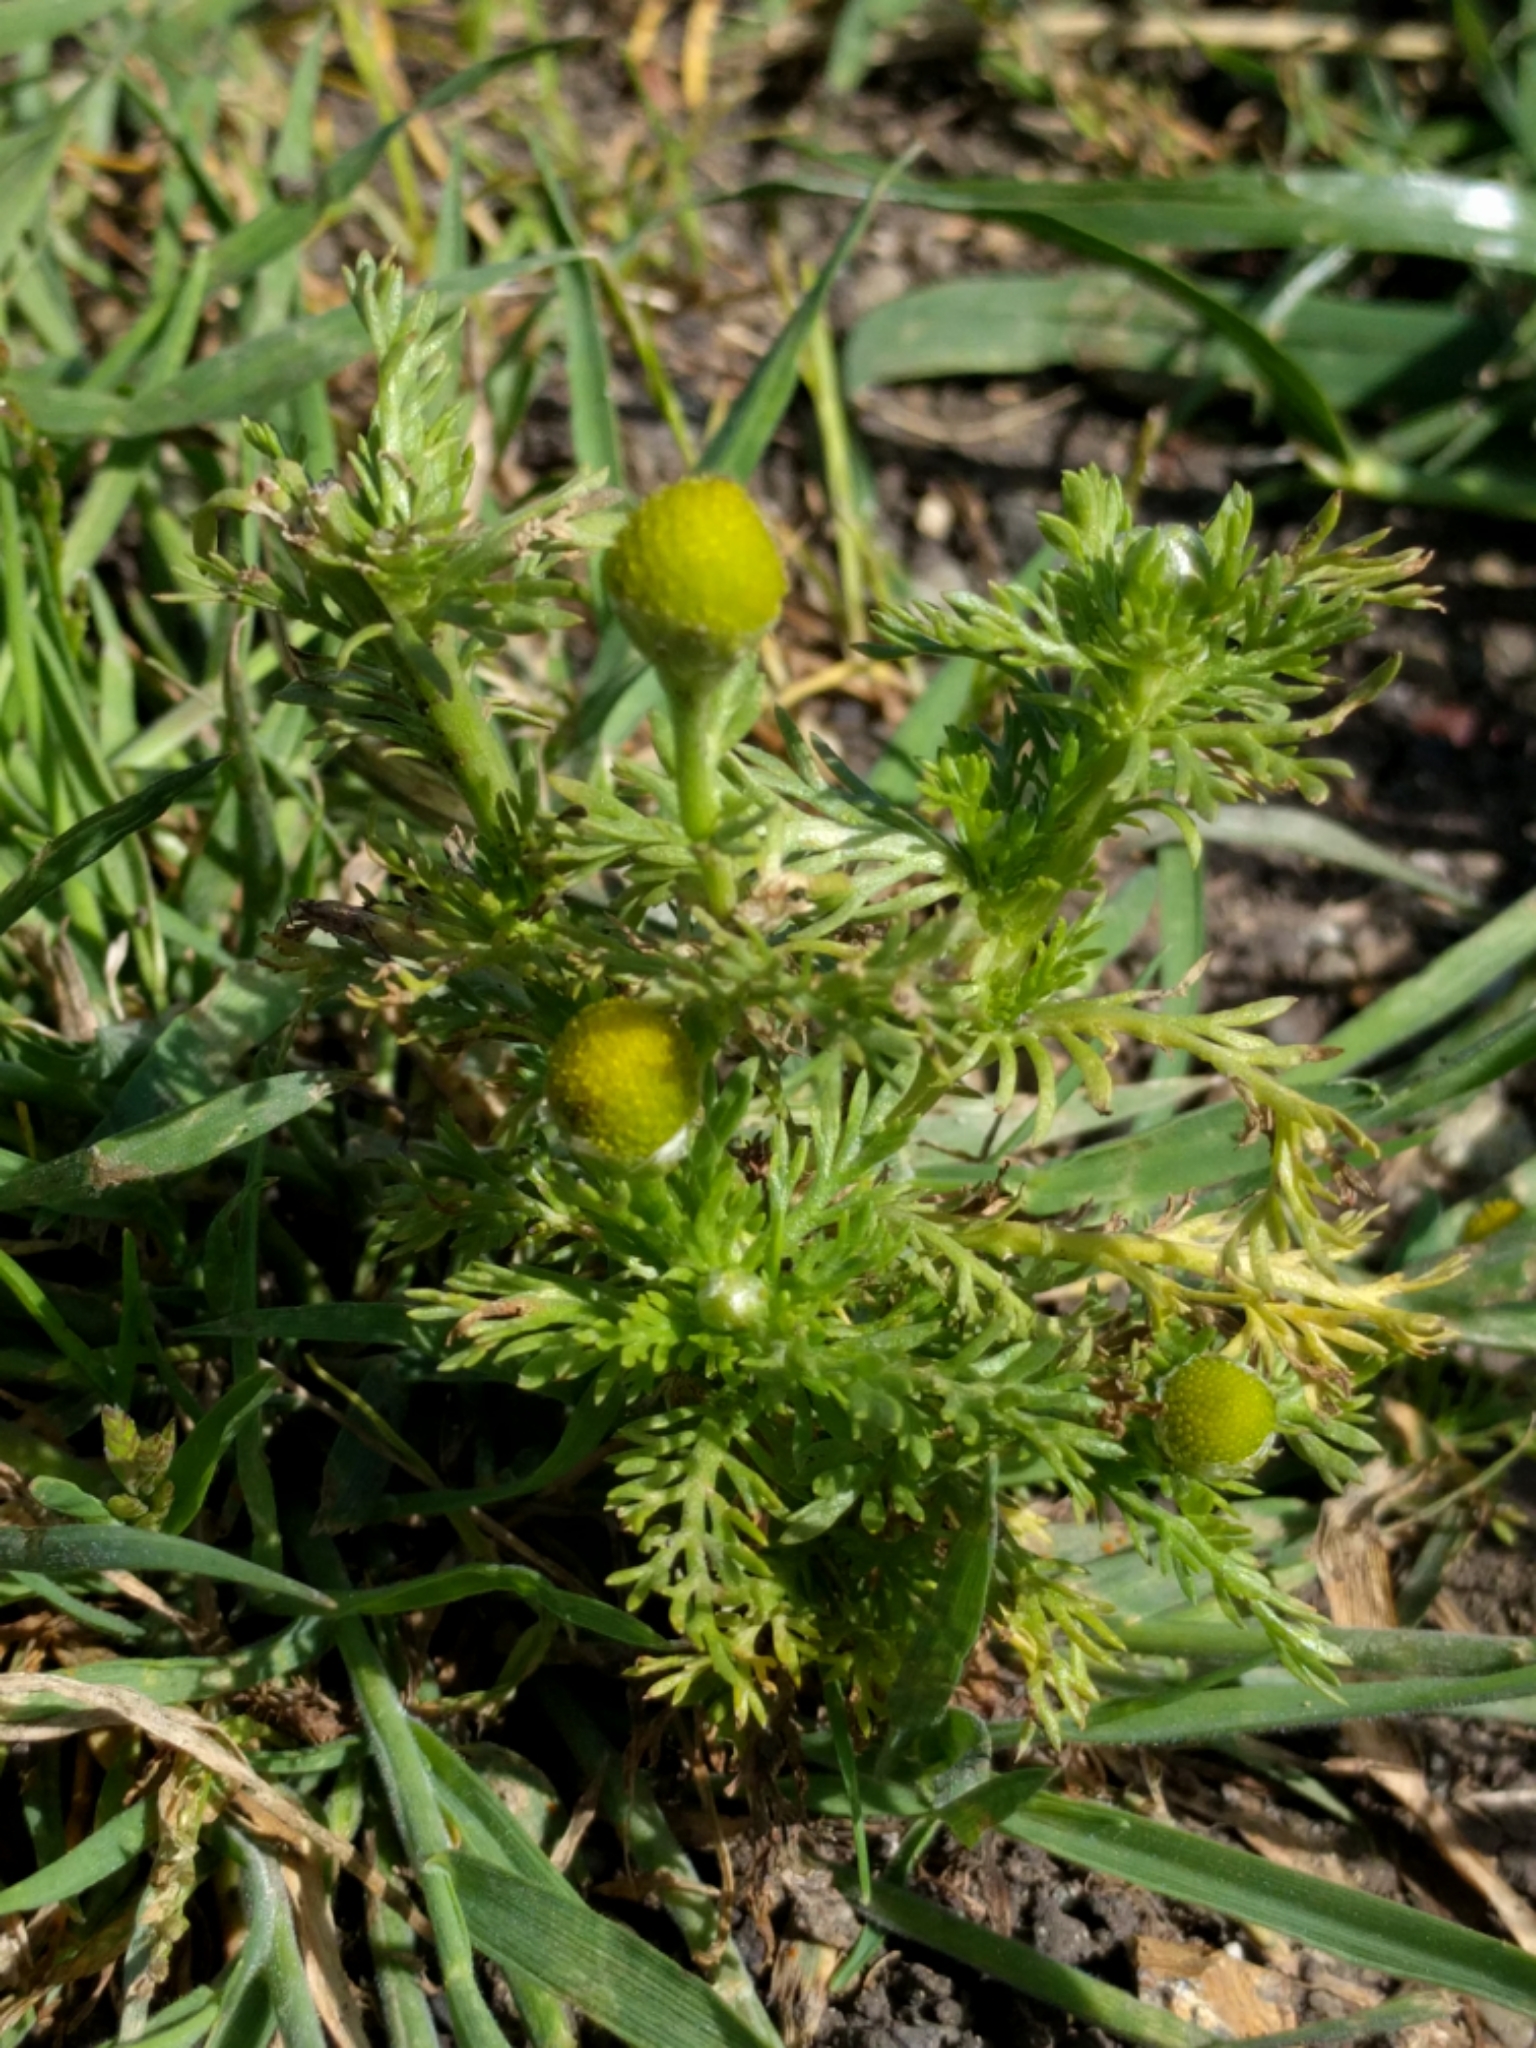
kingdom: Plantae
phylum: Tracheophyta
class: Magnoliopsida
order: Asterales
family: Asteraceae
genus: Matricaria
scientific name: Matricaria discoidea
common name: Disc mayweed
